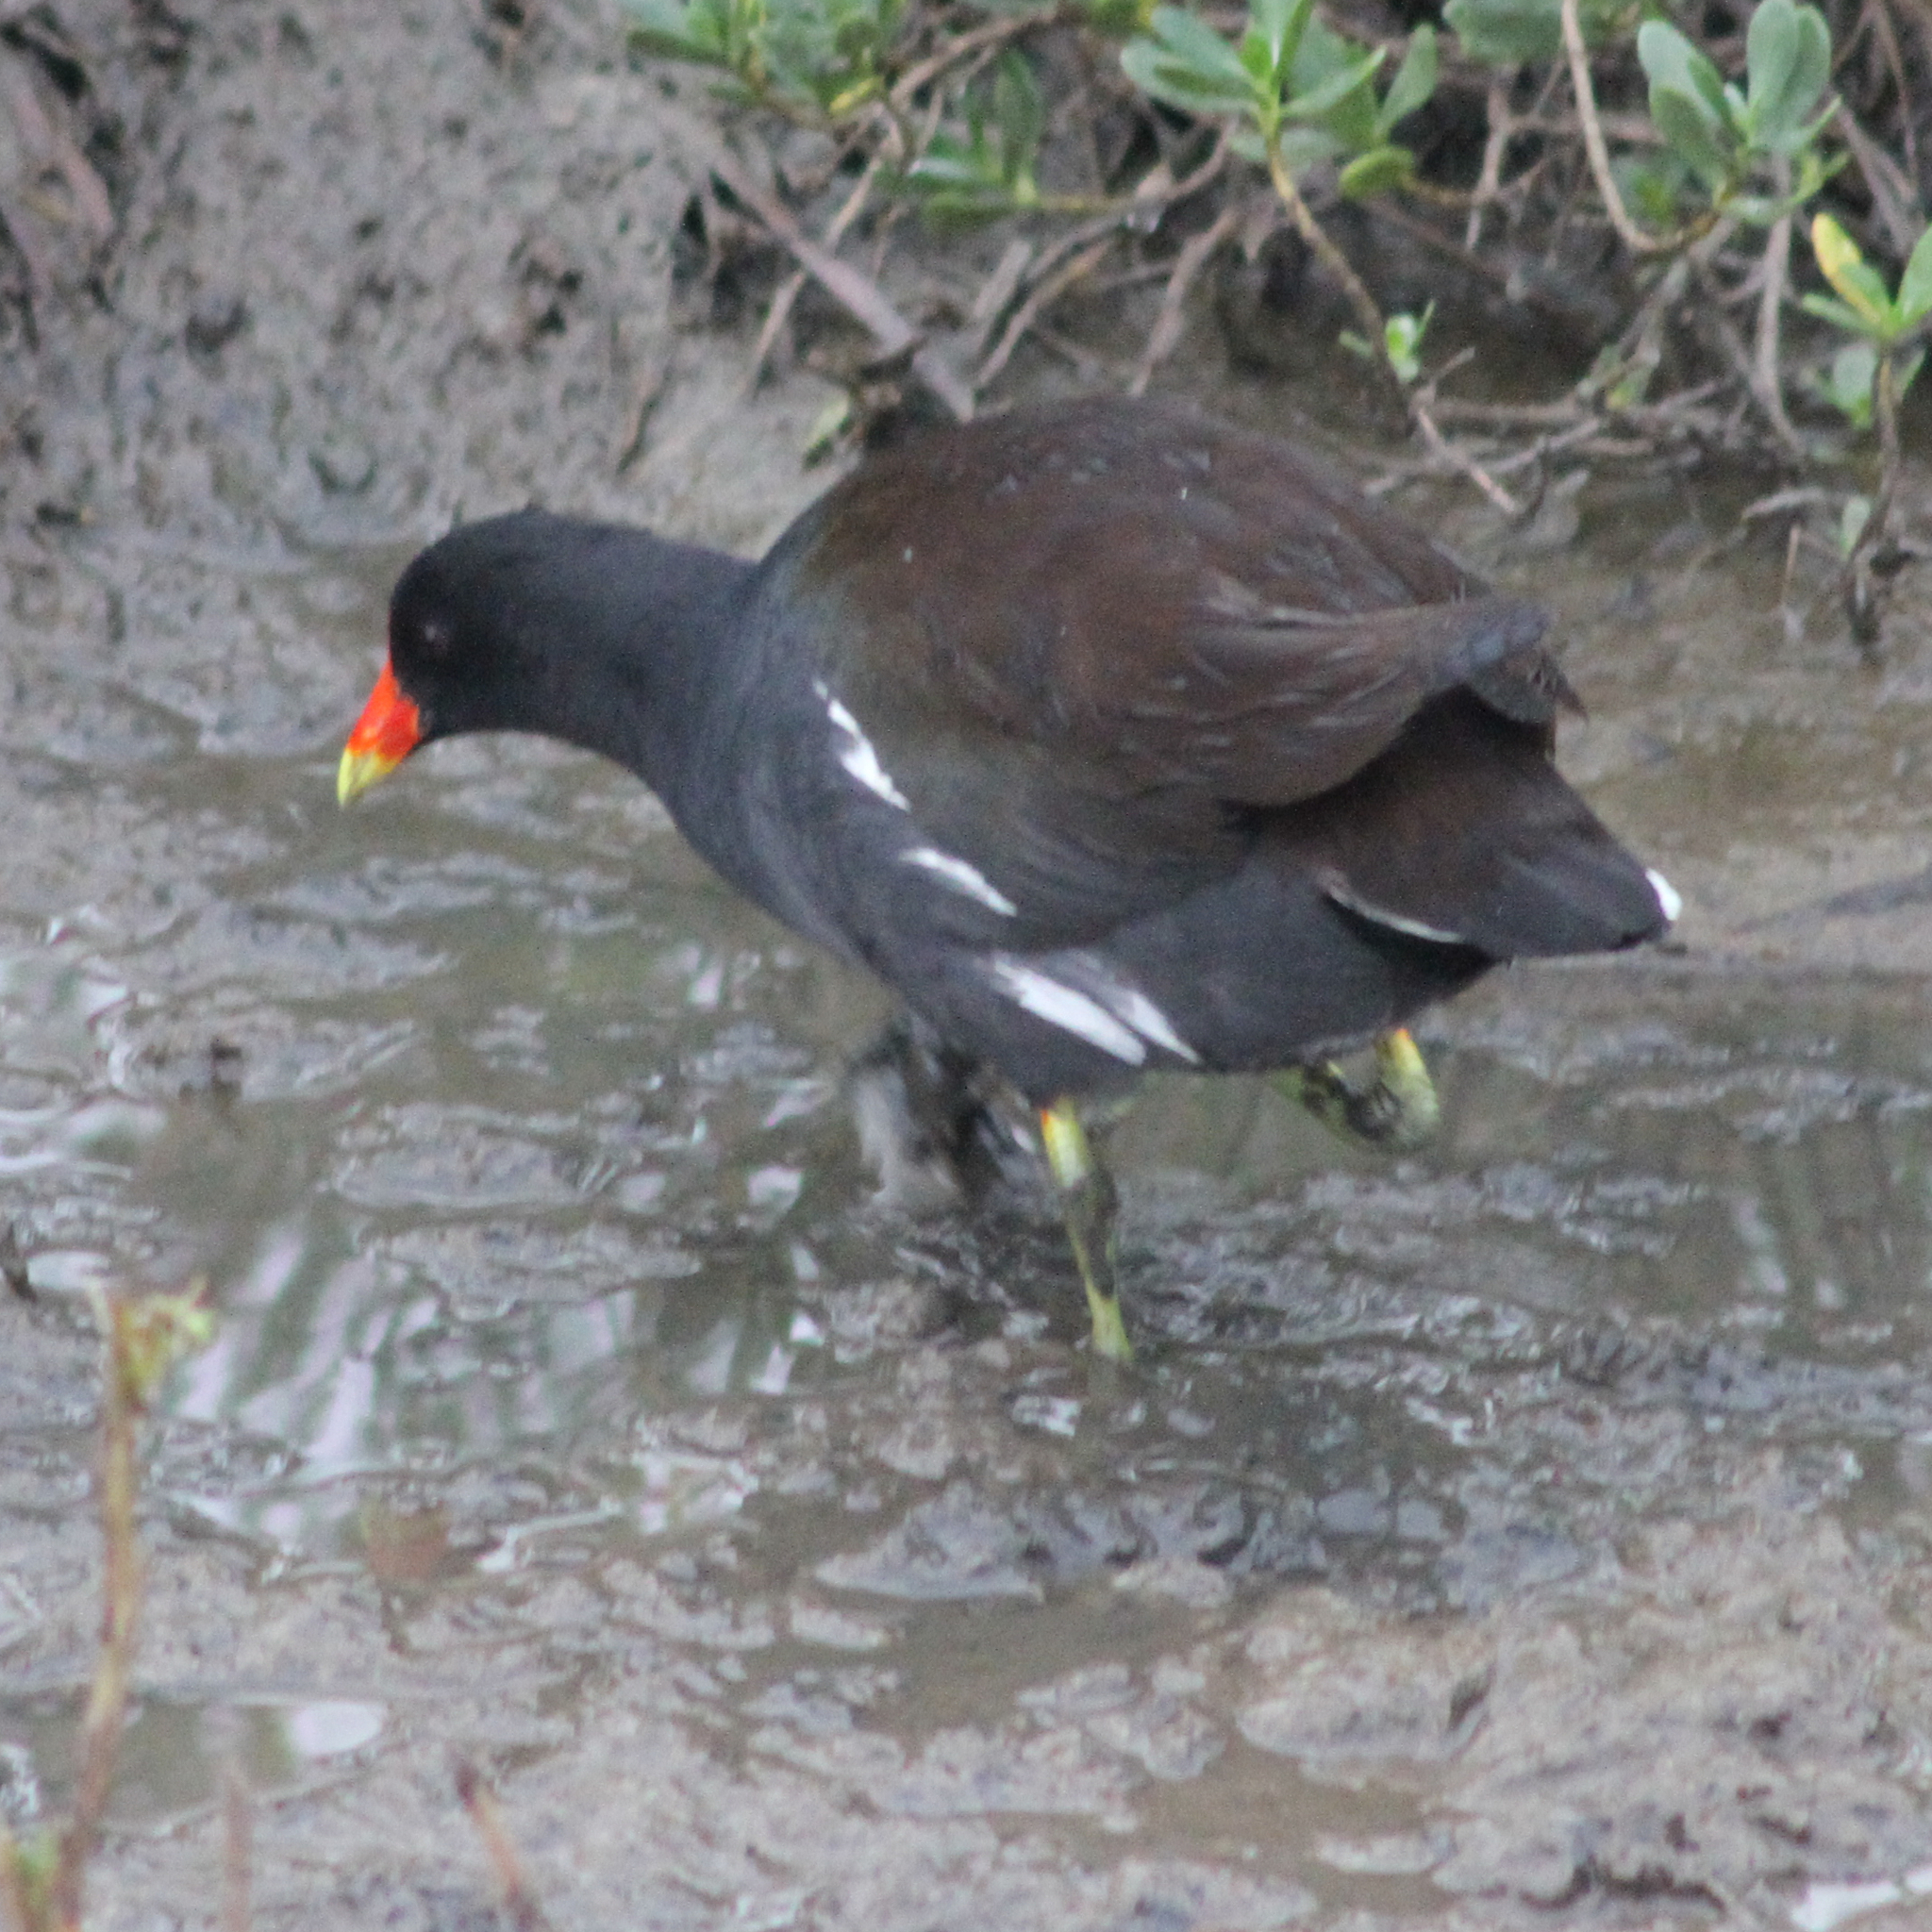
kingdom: Animalia
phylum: Chordata
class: Aves
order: Gruiformes
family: Rallidae
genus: Gallinula
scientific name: Gallinula chloropus
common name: Common moorhen
